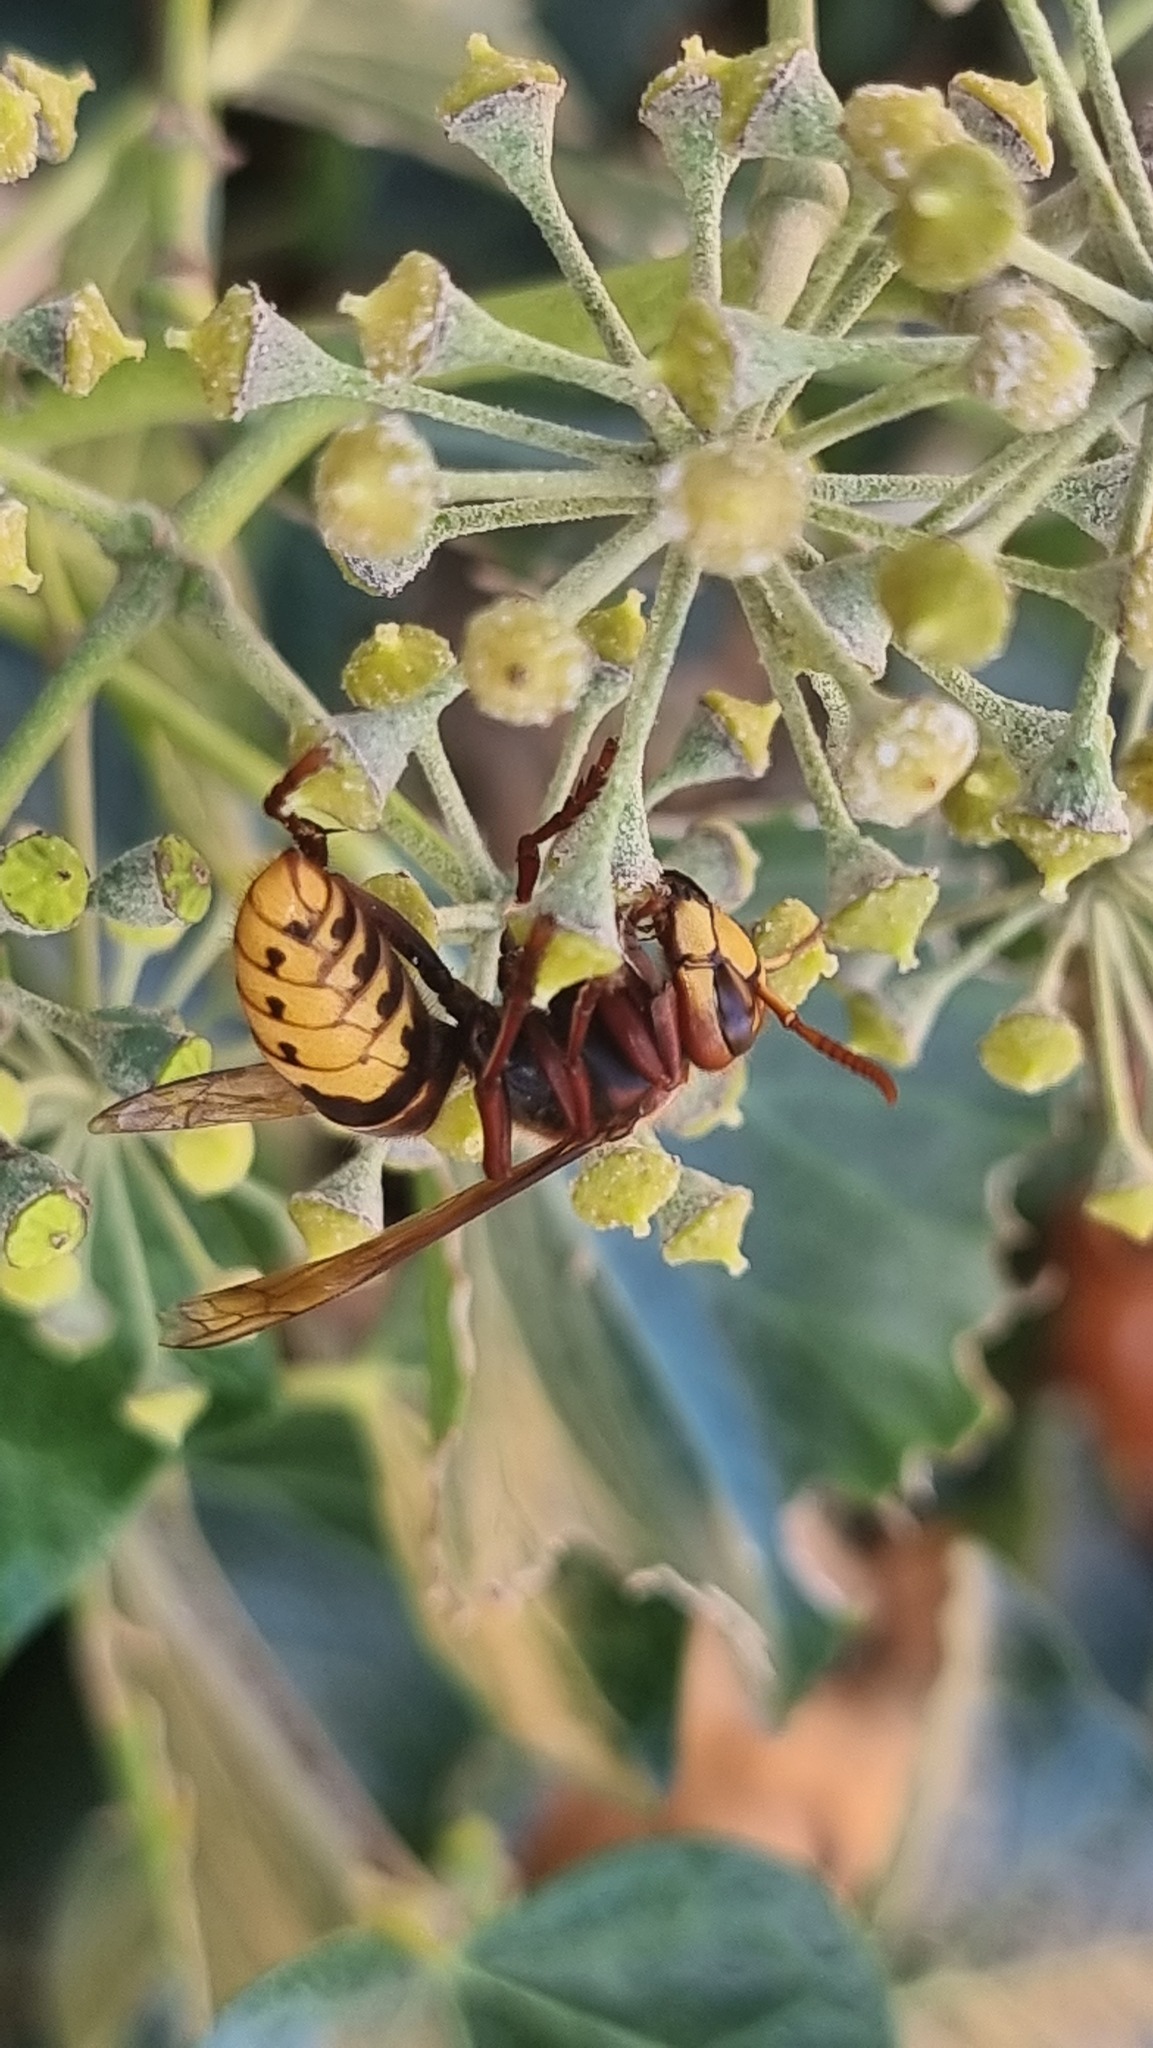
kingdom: Animalia
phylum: Arthropoda
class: Insecta
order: Hymenoptera
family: Vespidae
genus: Vespa
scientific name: Vespa crabro
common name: Hornet
